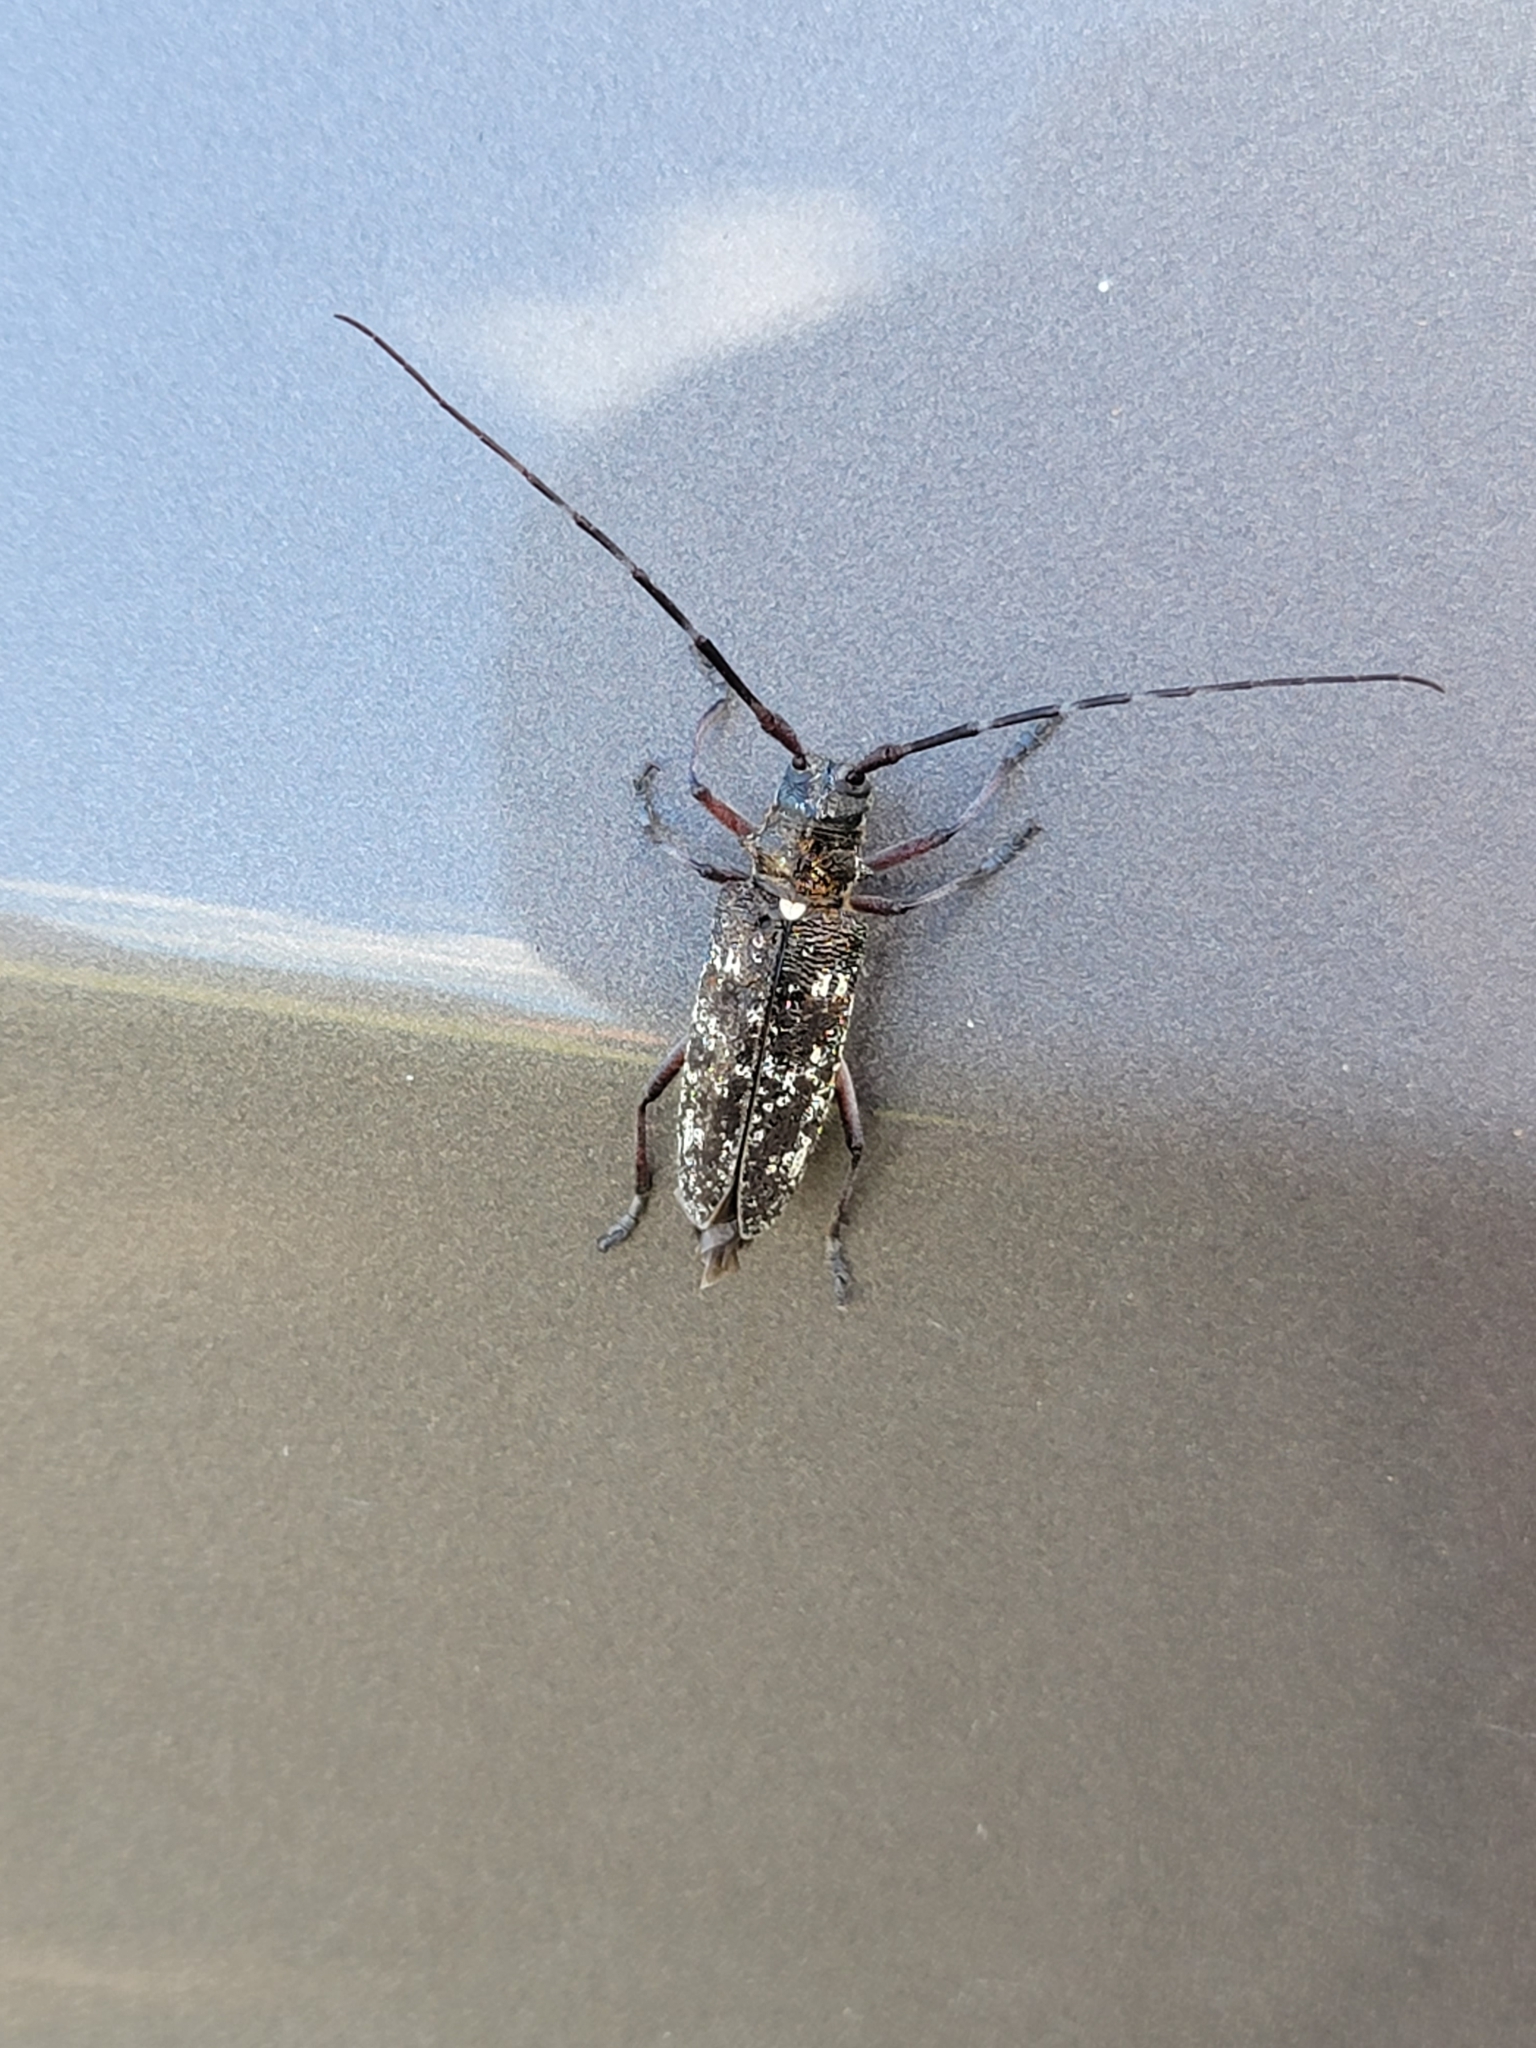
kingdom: Animalia
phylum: Arthropoda
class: Insecta
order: Coleoptera
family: Cerambycidae
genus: Monochamus
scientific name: Monochamus scutellatus
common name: White-spotted sawyer beetle
